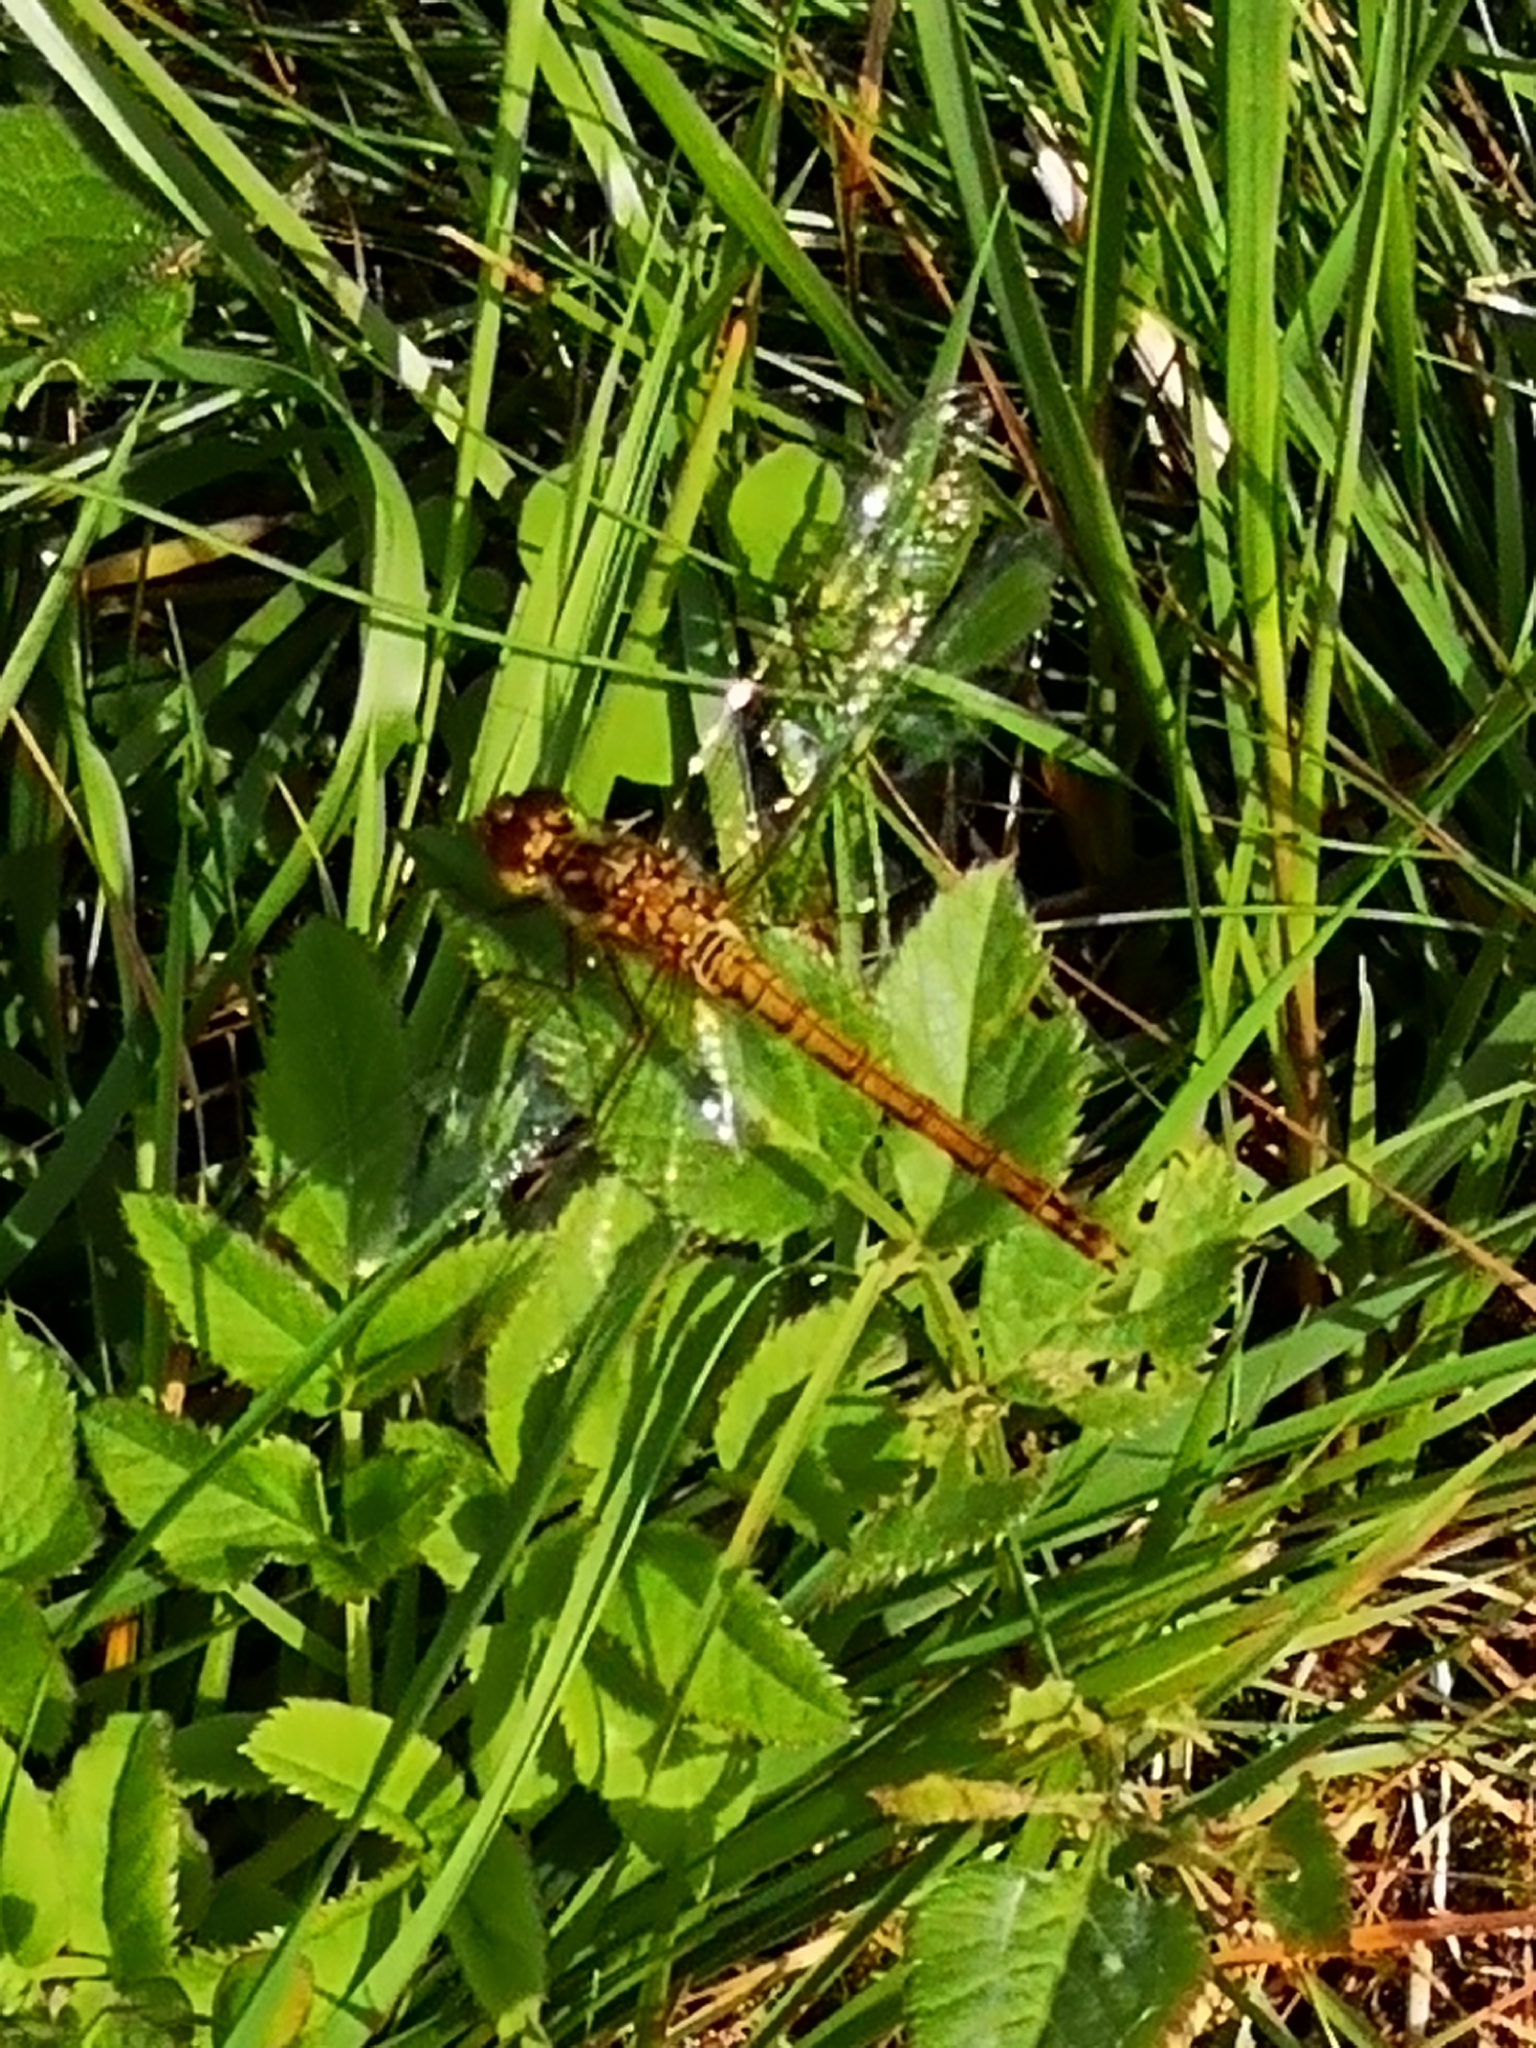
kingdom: Animalia
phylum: Arthropoda
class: Insecta
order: Odonata
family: Libellulidae
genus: Sympetrum
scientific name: Sympetrum striolatum
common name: Common darter
